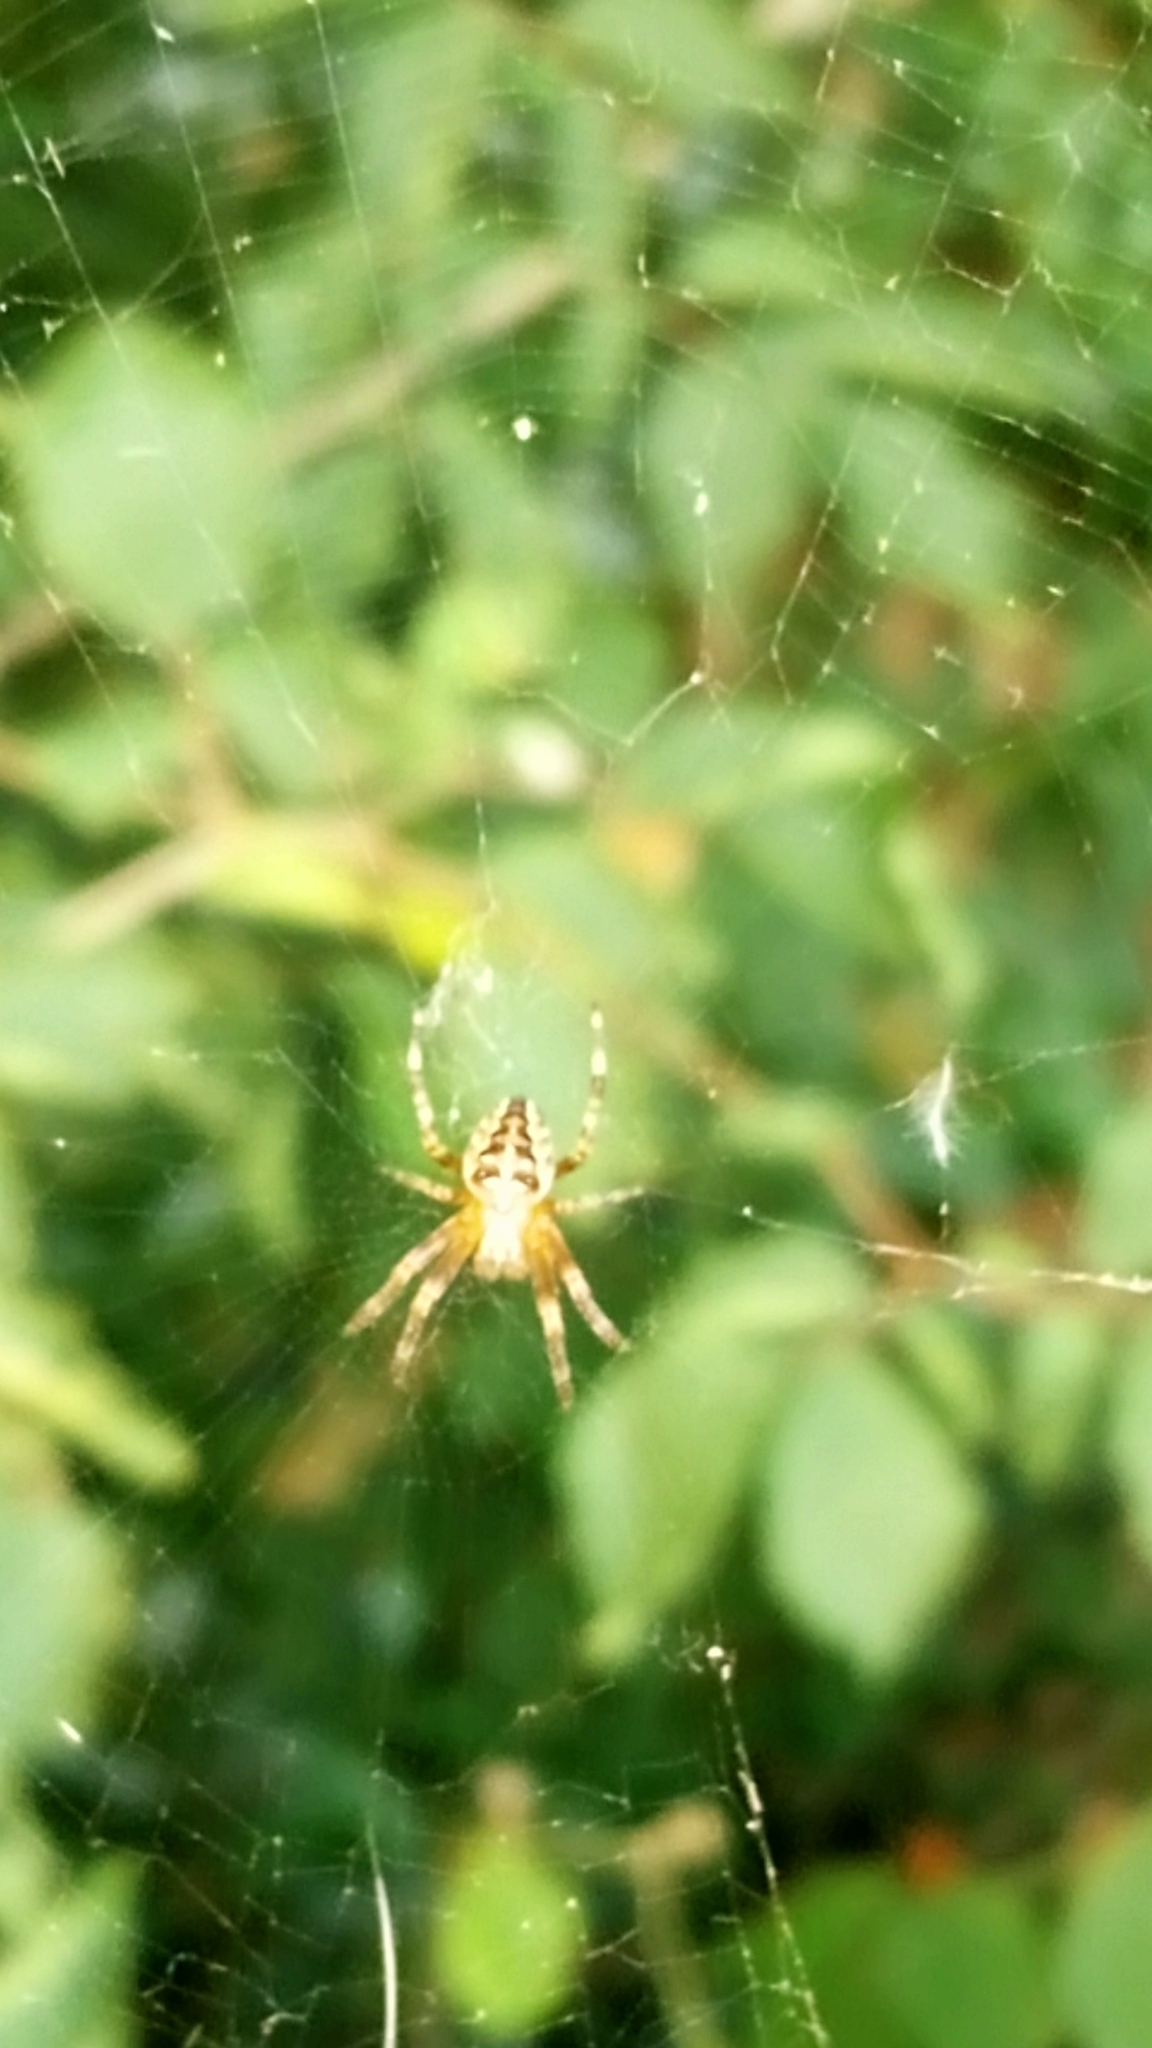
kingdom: Animalia
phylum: Arthropoda
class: Arachnida
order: Araneae
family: Araneidae
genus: Araneus
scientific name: Araneus diadematus
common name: Cross orbweaver
